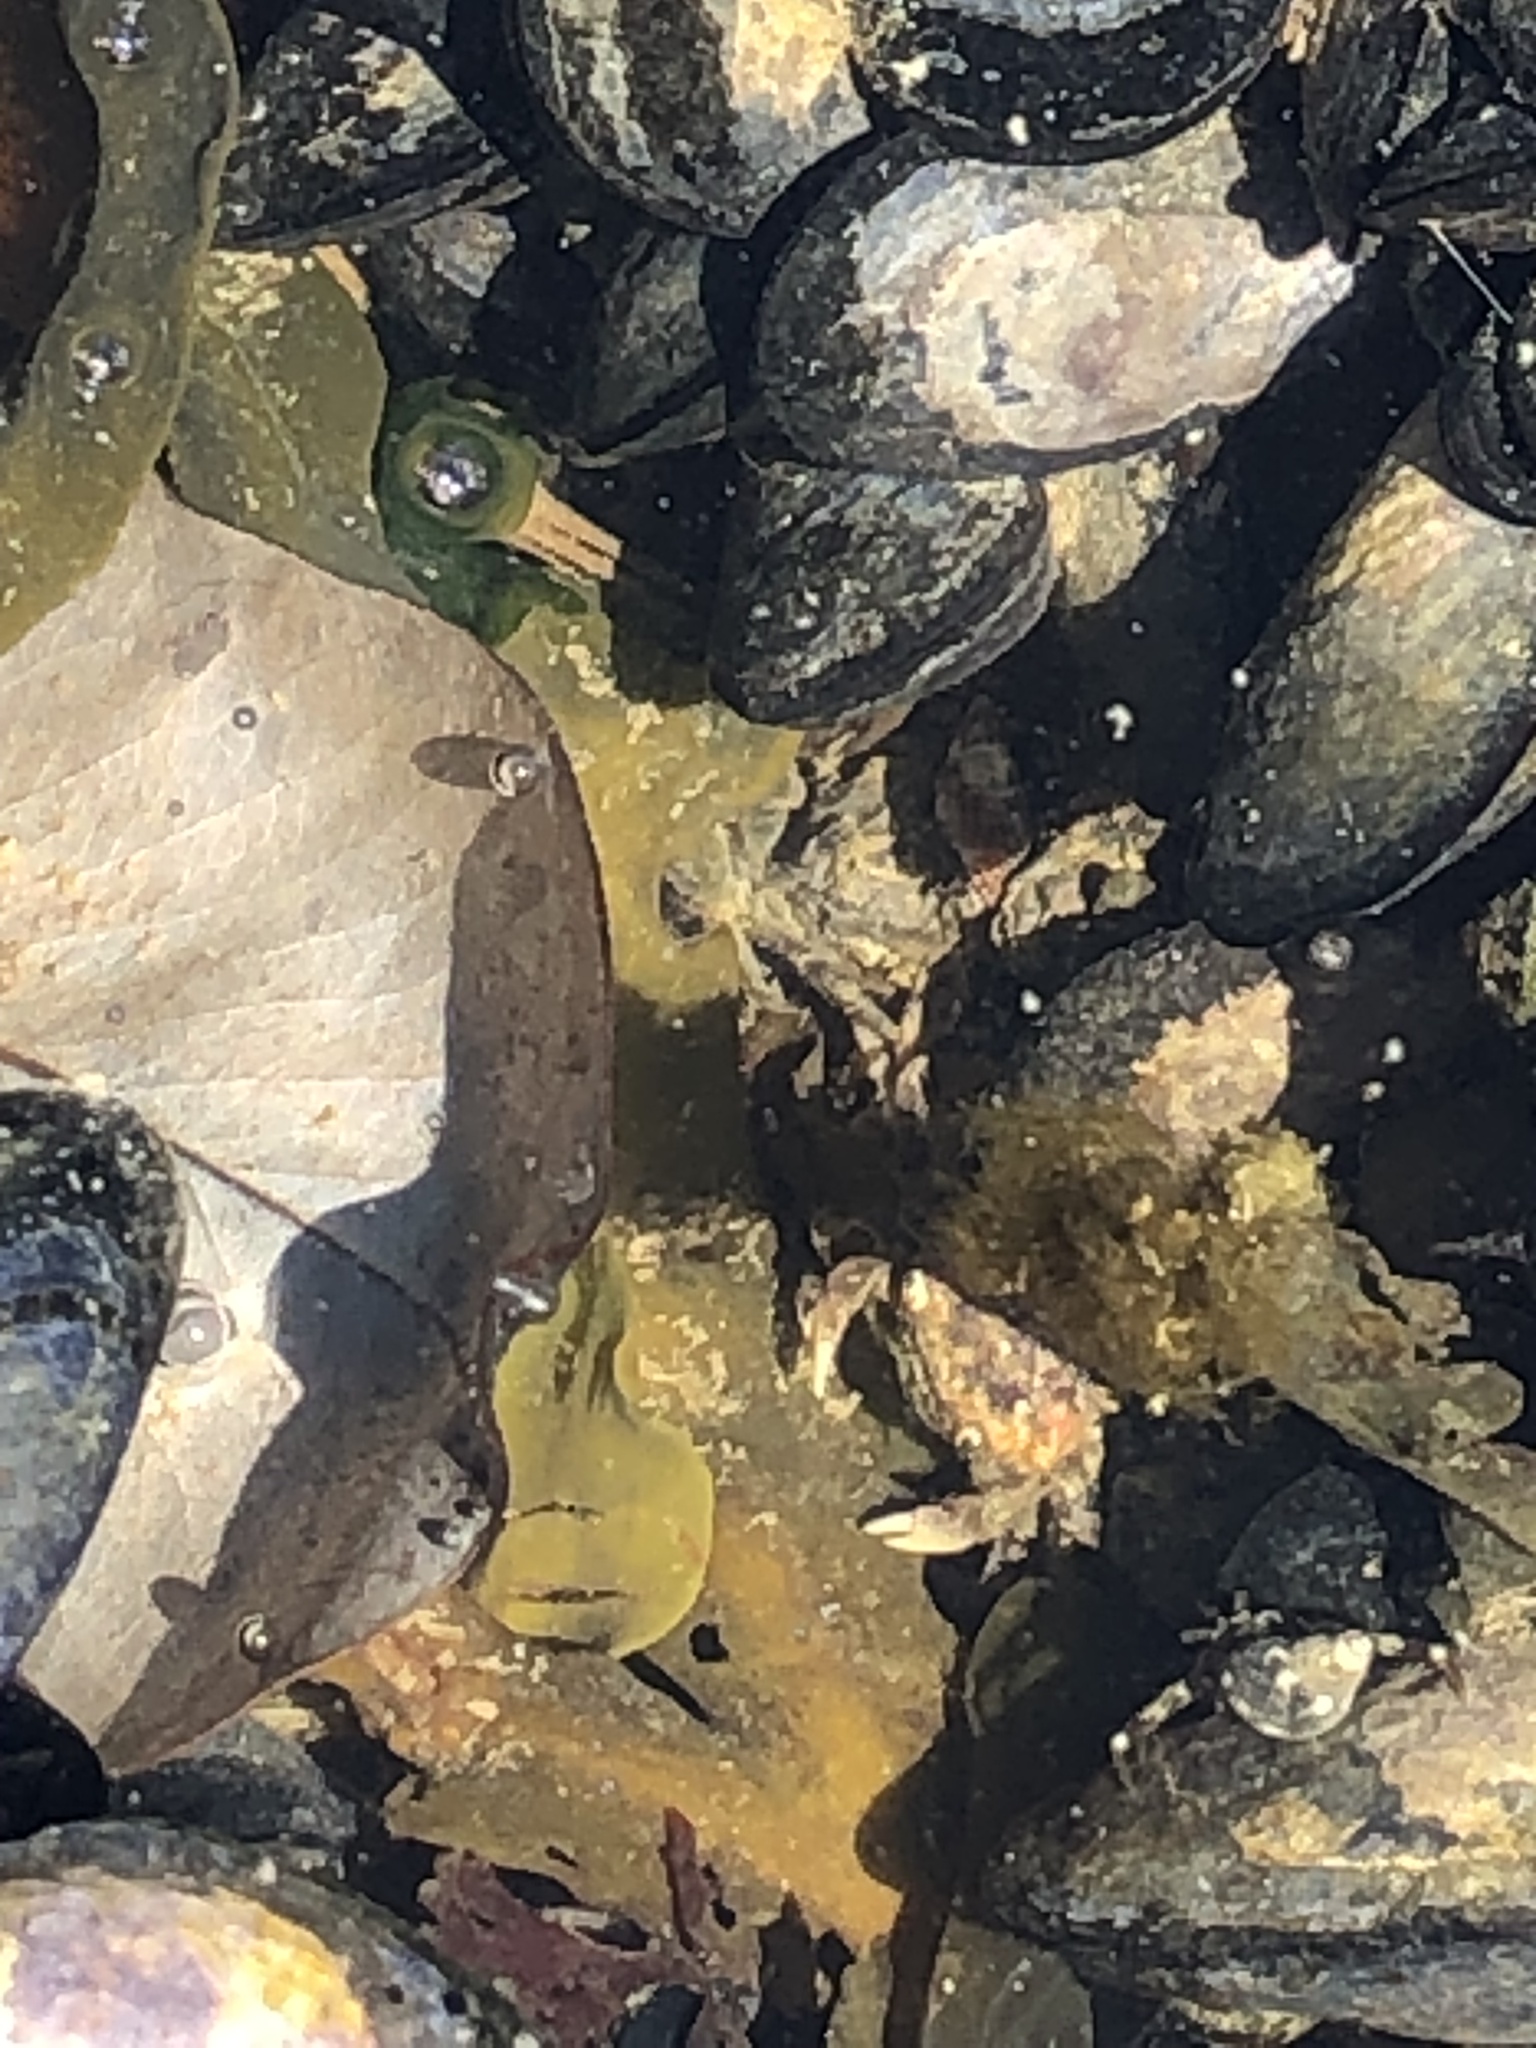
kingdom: Animalia
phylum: Arthropoda
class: Malacostraca
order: Decapoda
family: Varunidae
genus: Hemigrapsus
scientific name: Hemigrapsus oregonensis
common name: Yellow shore crab
